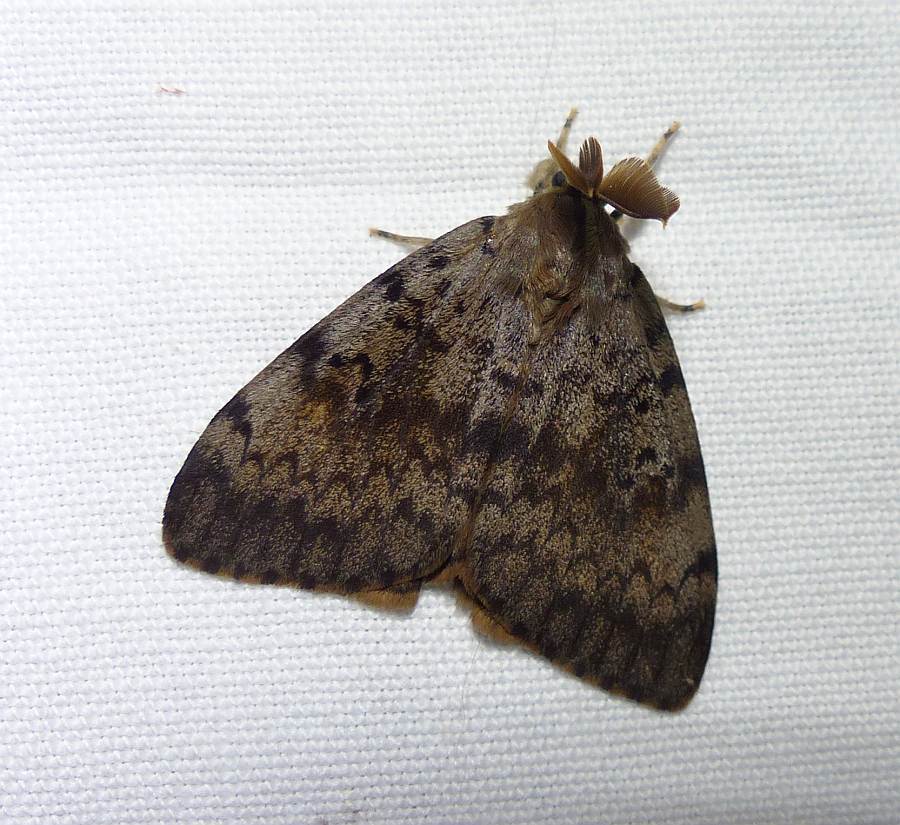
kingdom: Animalia
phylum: Arthropoda
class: Insecta
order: Lepidoptera
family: Erebidae
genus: Lymantria
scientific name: Lymantria dispar
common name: Gypsy moth
